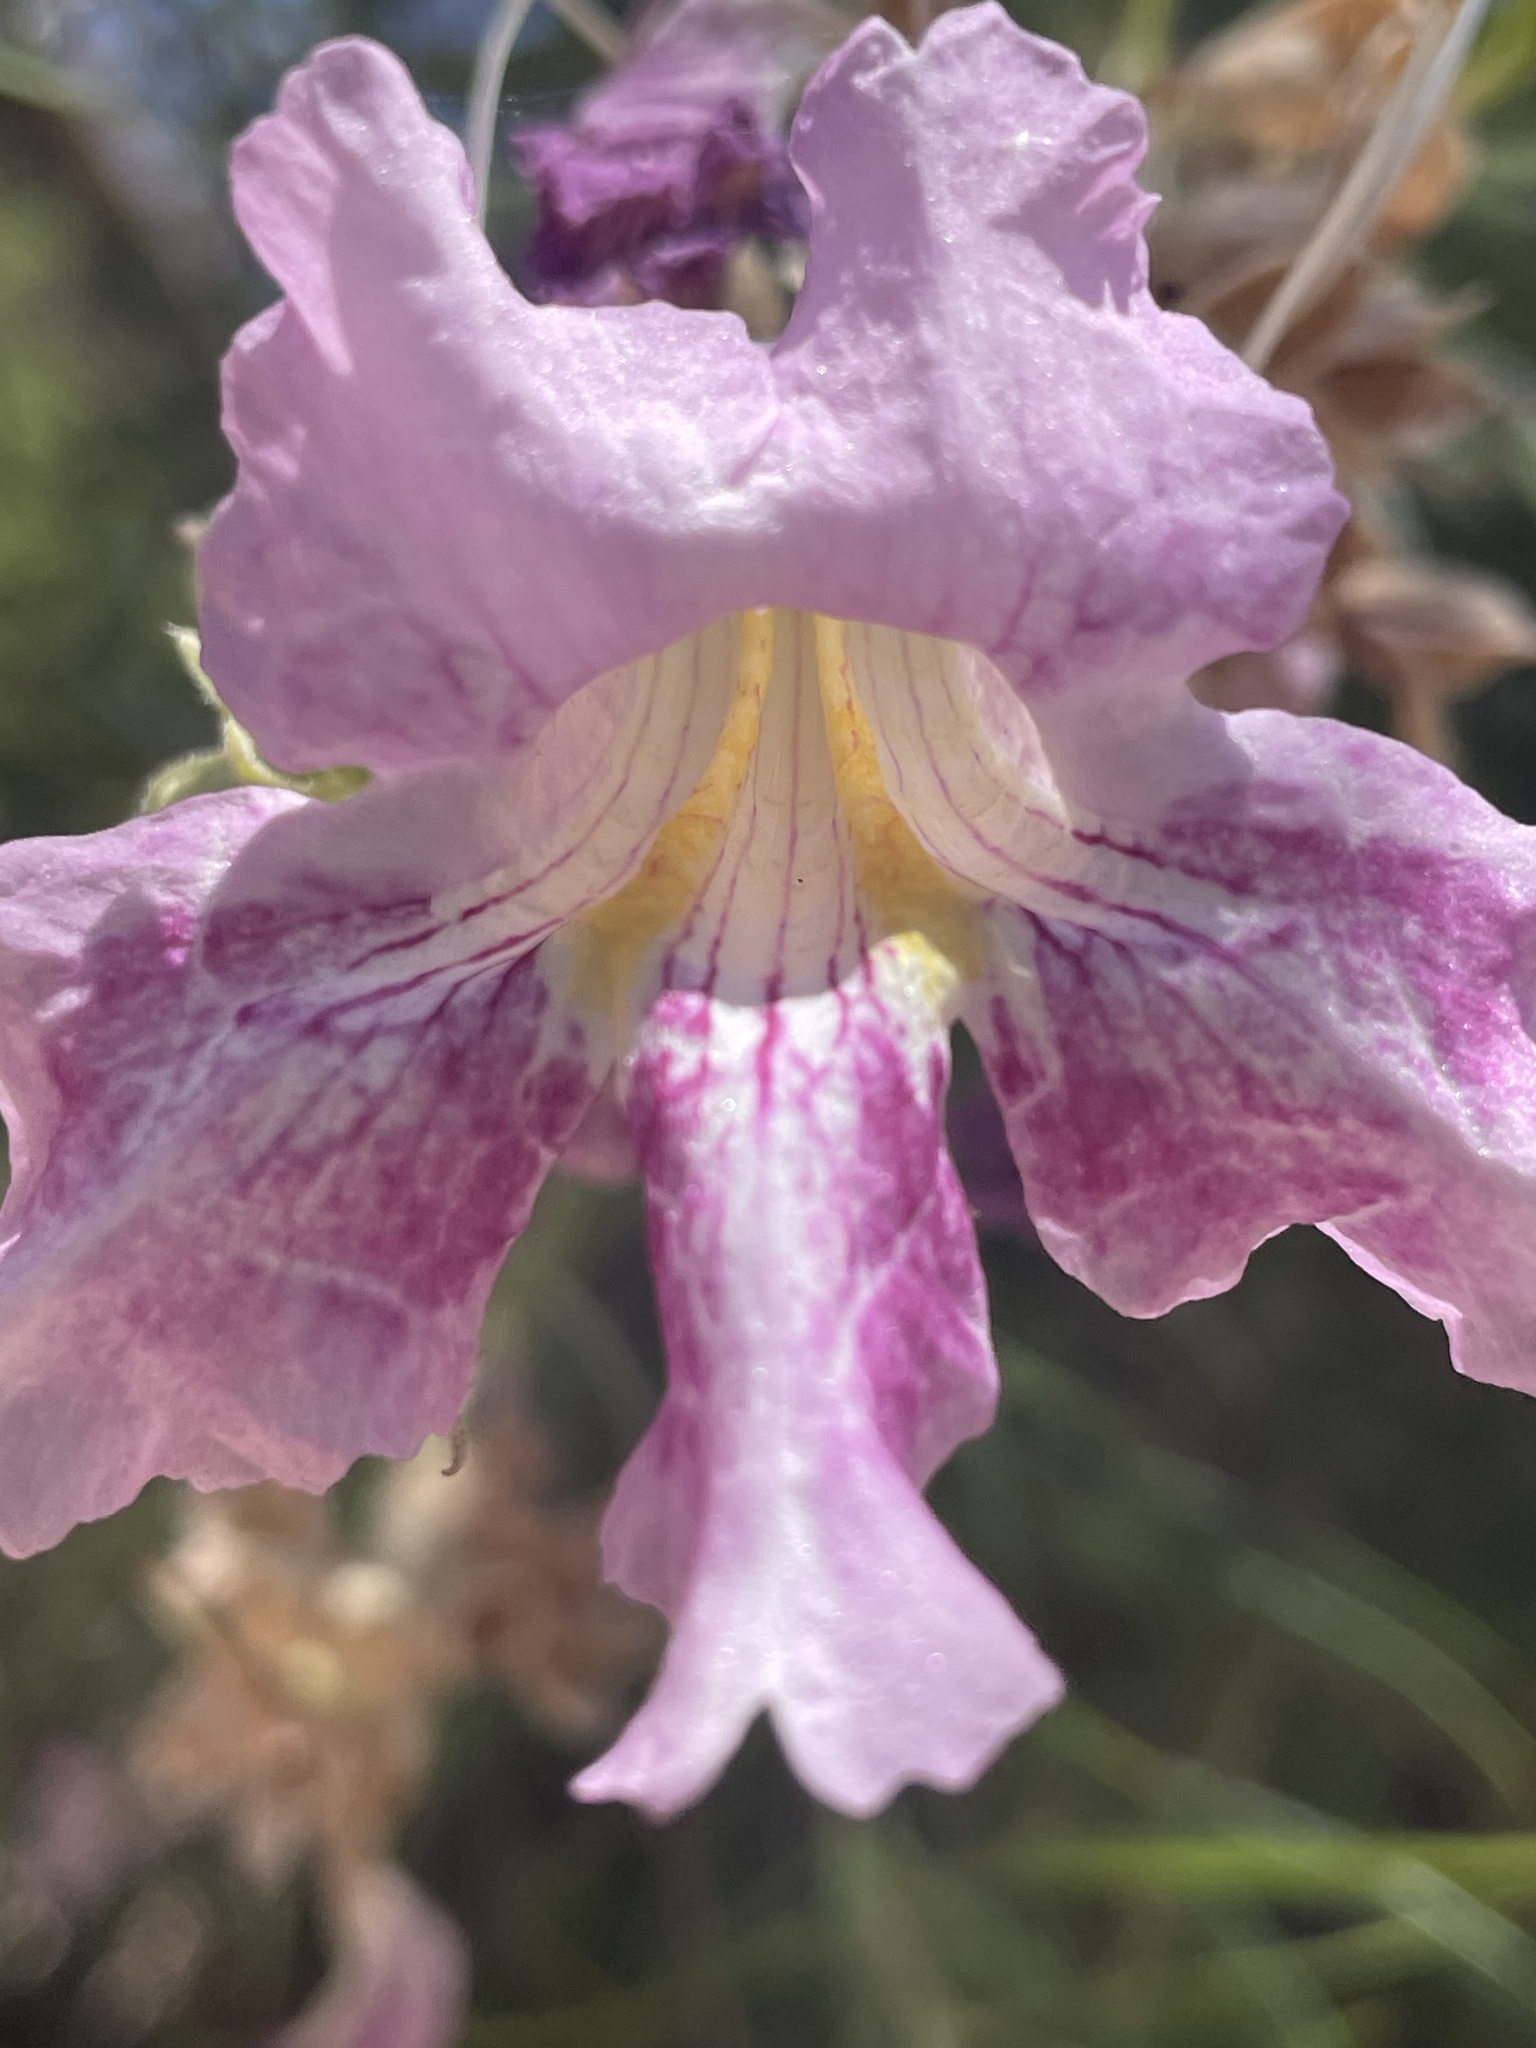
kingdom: Plantae
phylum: Tracheophyta
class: Magnoliopsida
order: Lamiales
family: Bignoniaceae
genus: Chilopsis
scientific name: Chilopsis linearis
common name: Desert-willow
